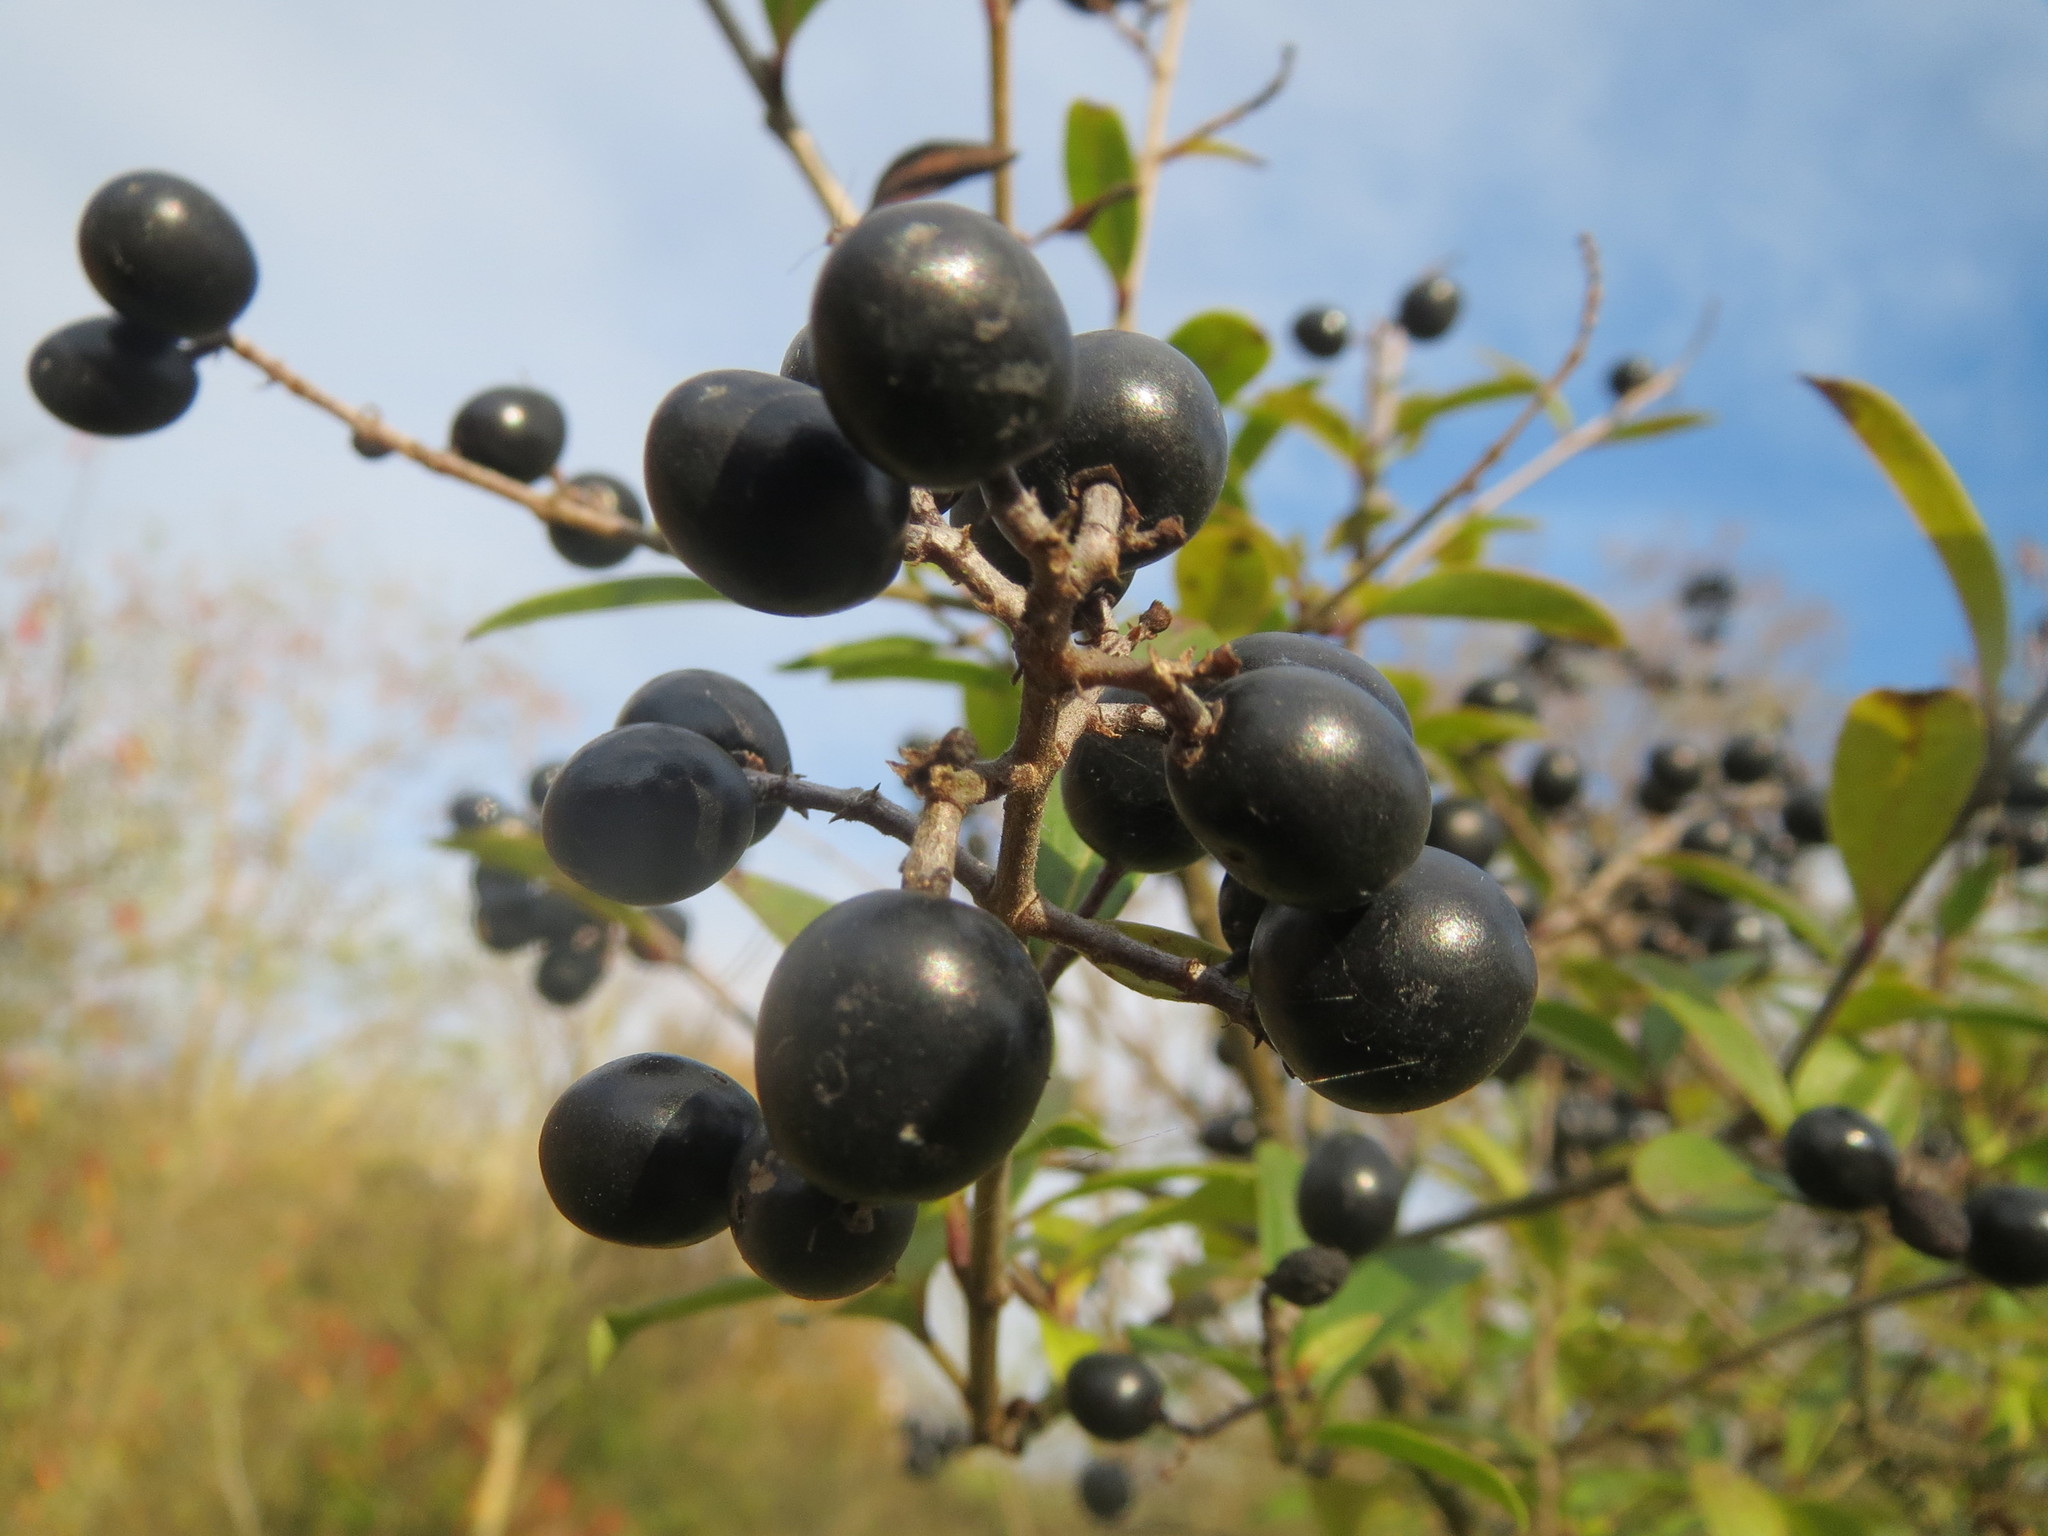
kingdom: Plantae
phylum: Tracheophyta
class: Magnoliopsida
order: Lamiales
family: Oleaceae
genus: Ligustrum
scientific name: Ligustrum vulgare
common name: Wild privet
